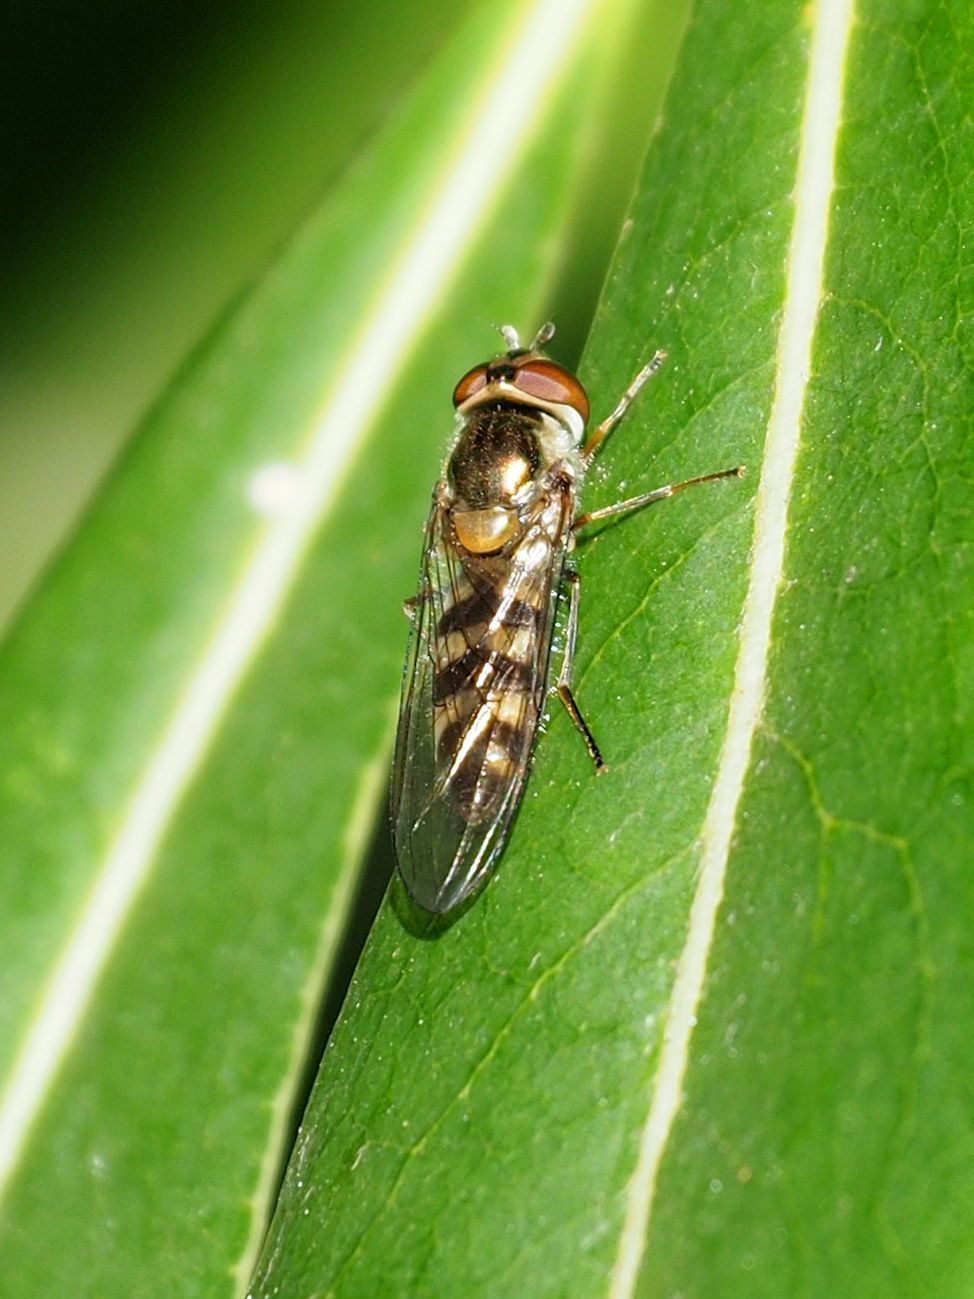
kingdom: Animalia
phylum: Arthropoda
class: Insecta
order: Diptera
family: Syrphidae
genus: Meliscaeva
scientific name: Meliscaeva auricollis
